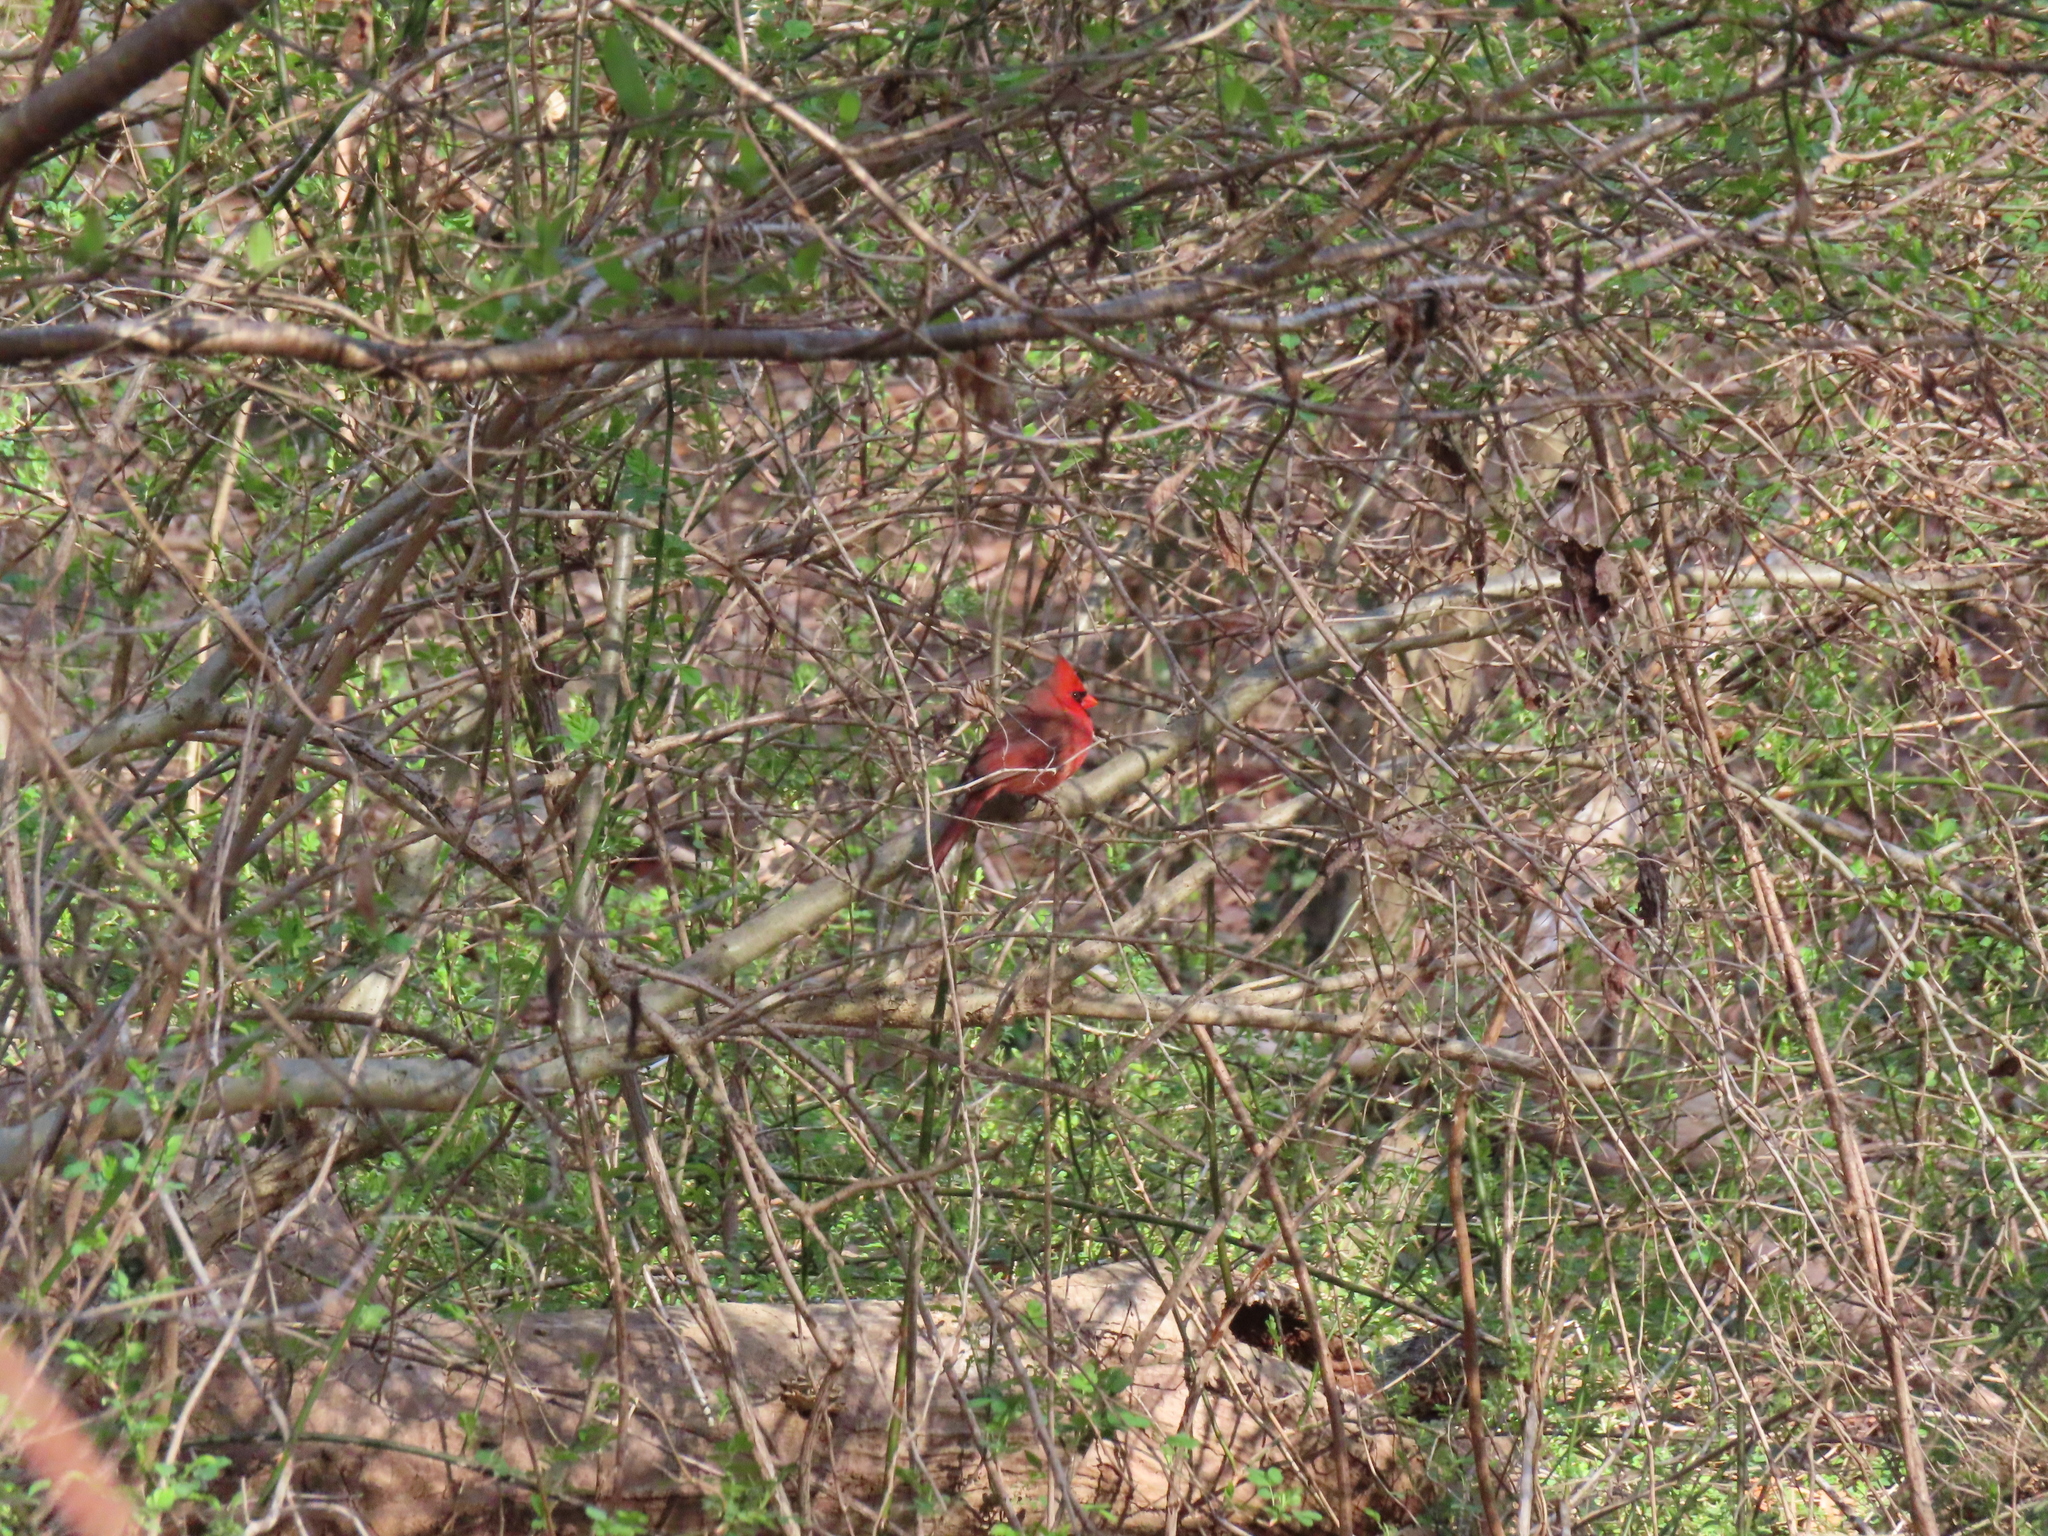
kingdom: Animalia
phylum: Chordata
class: Aves
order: Passeriformes
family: Cardinalidae
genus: Cardinalis
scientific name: Cardinalis cardinalis
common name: Northern cardinal
